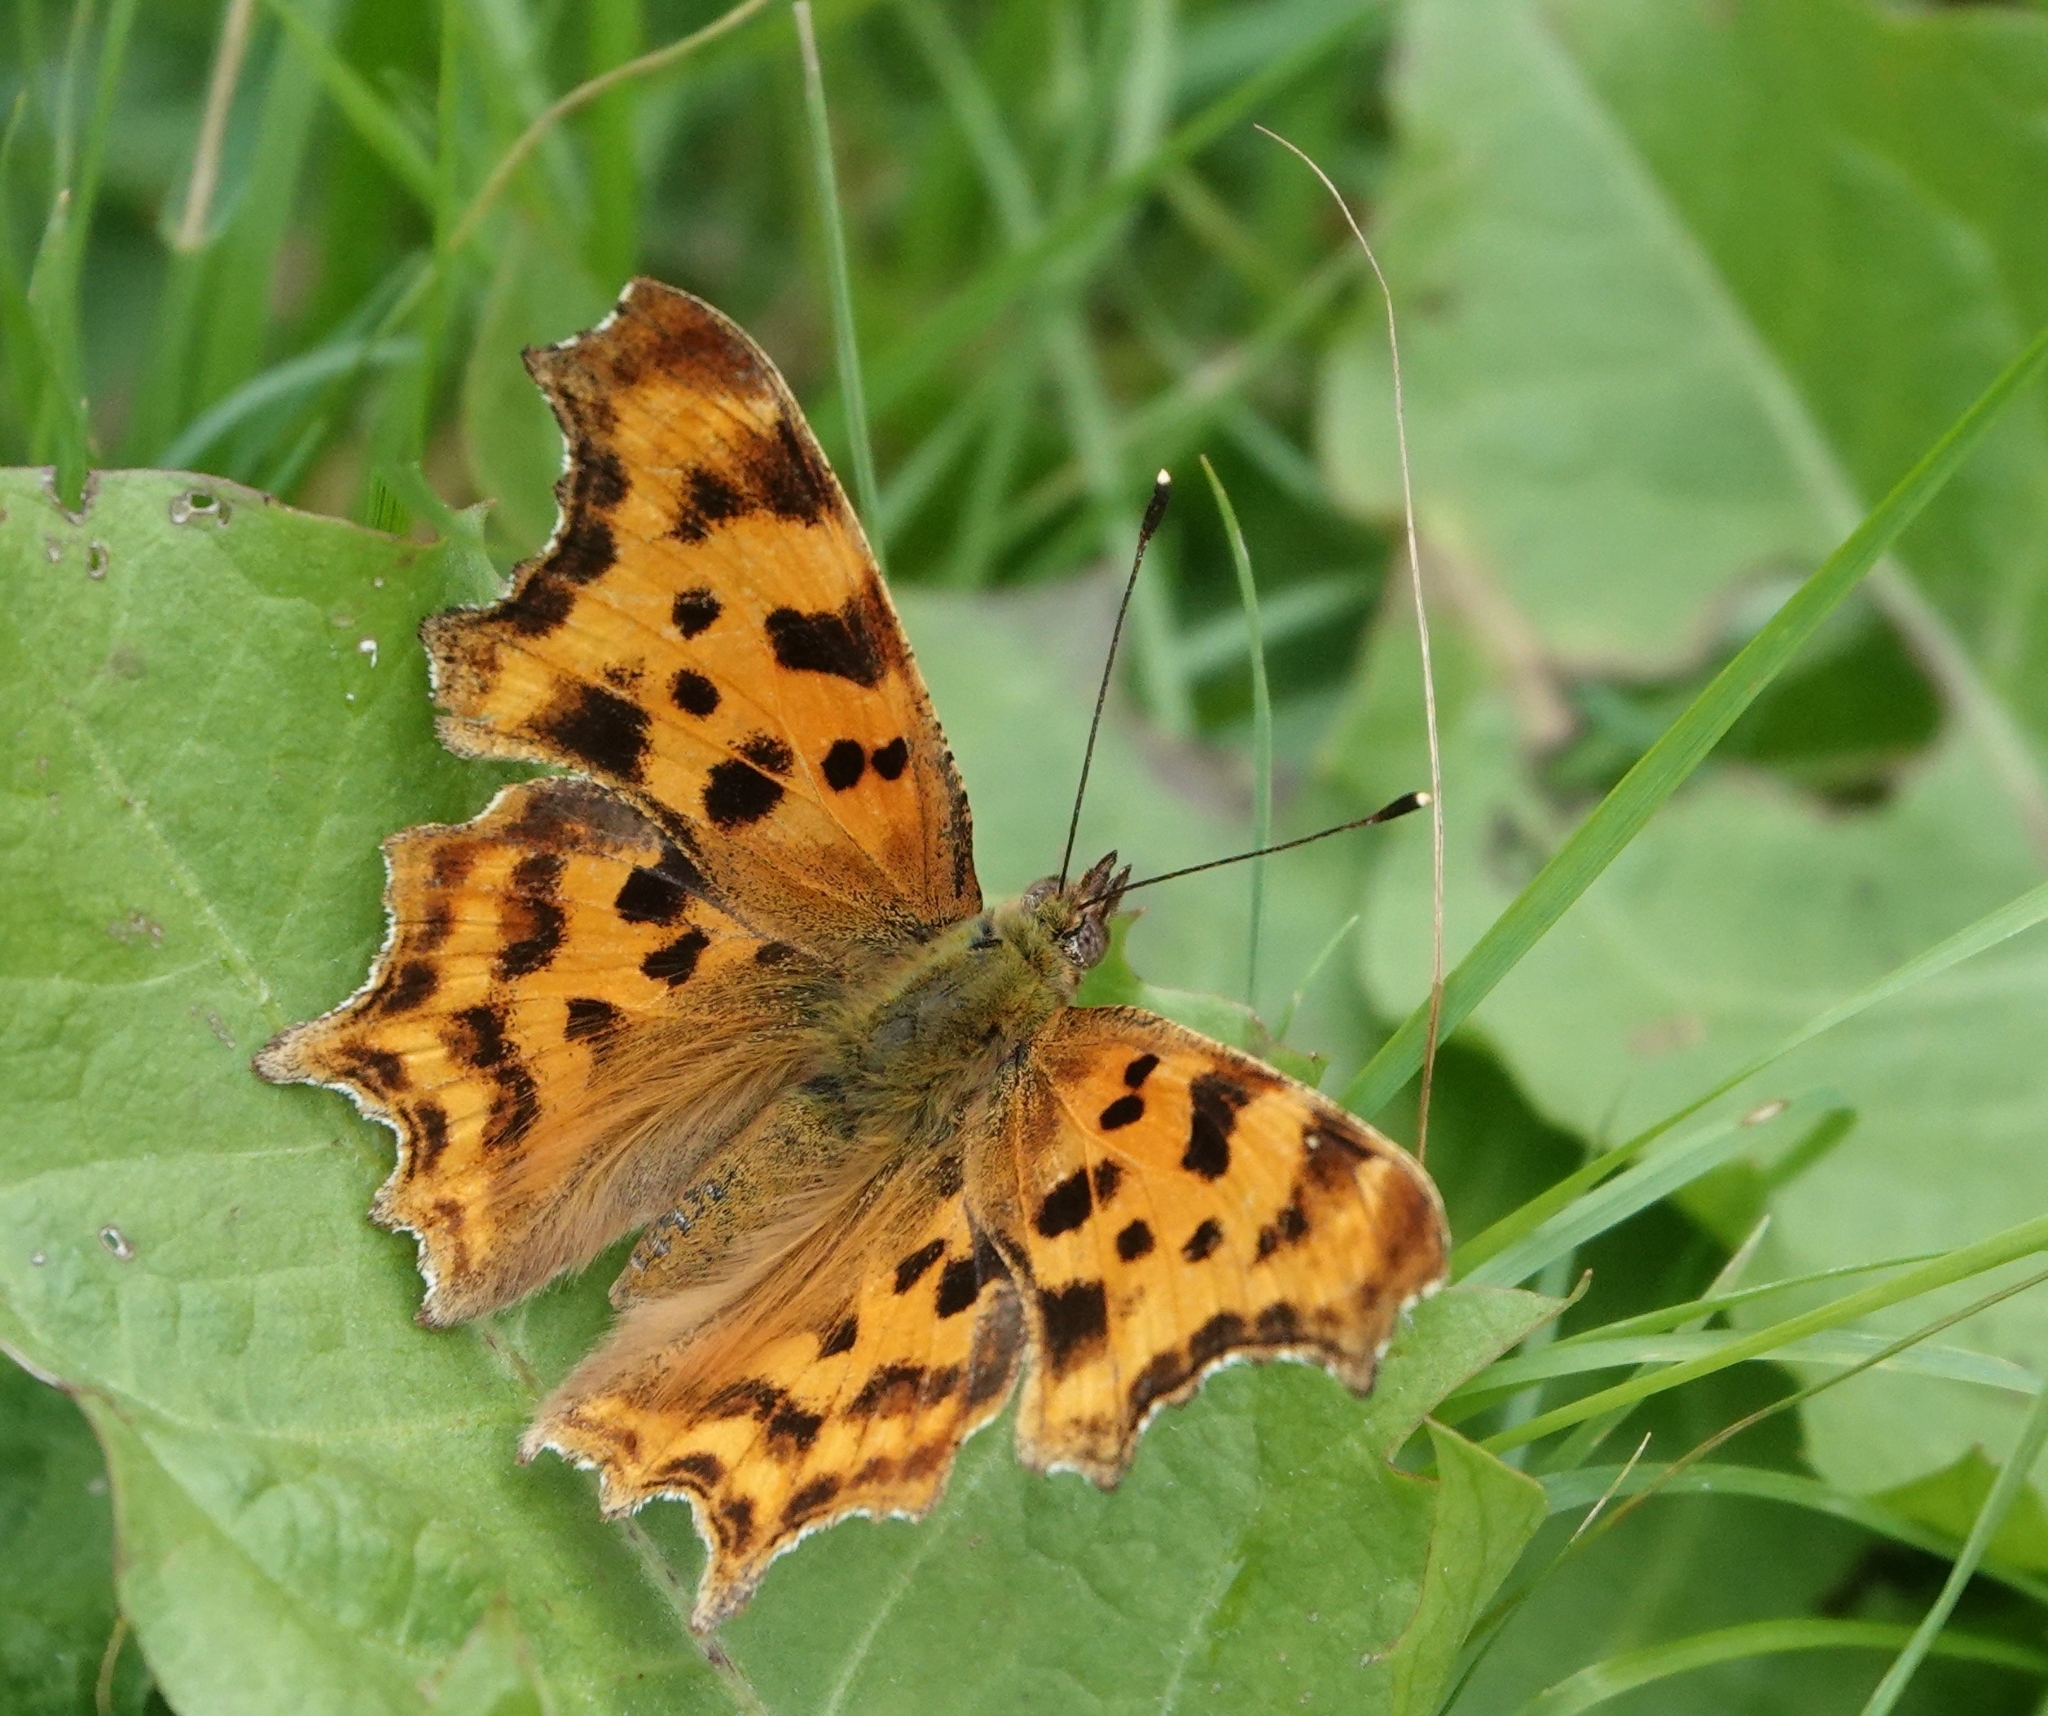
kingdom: Animalia
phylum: Arthropoda
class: Insecta
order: Lepidoptera
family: Nymphalidae
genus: Polygonia
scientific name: Polygonia c-album
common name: Comma
